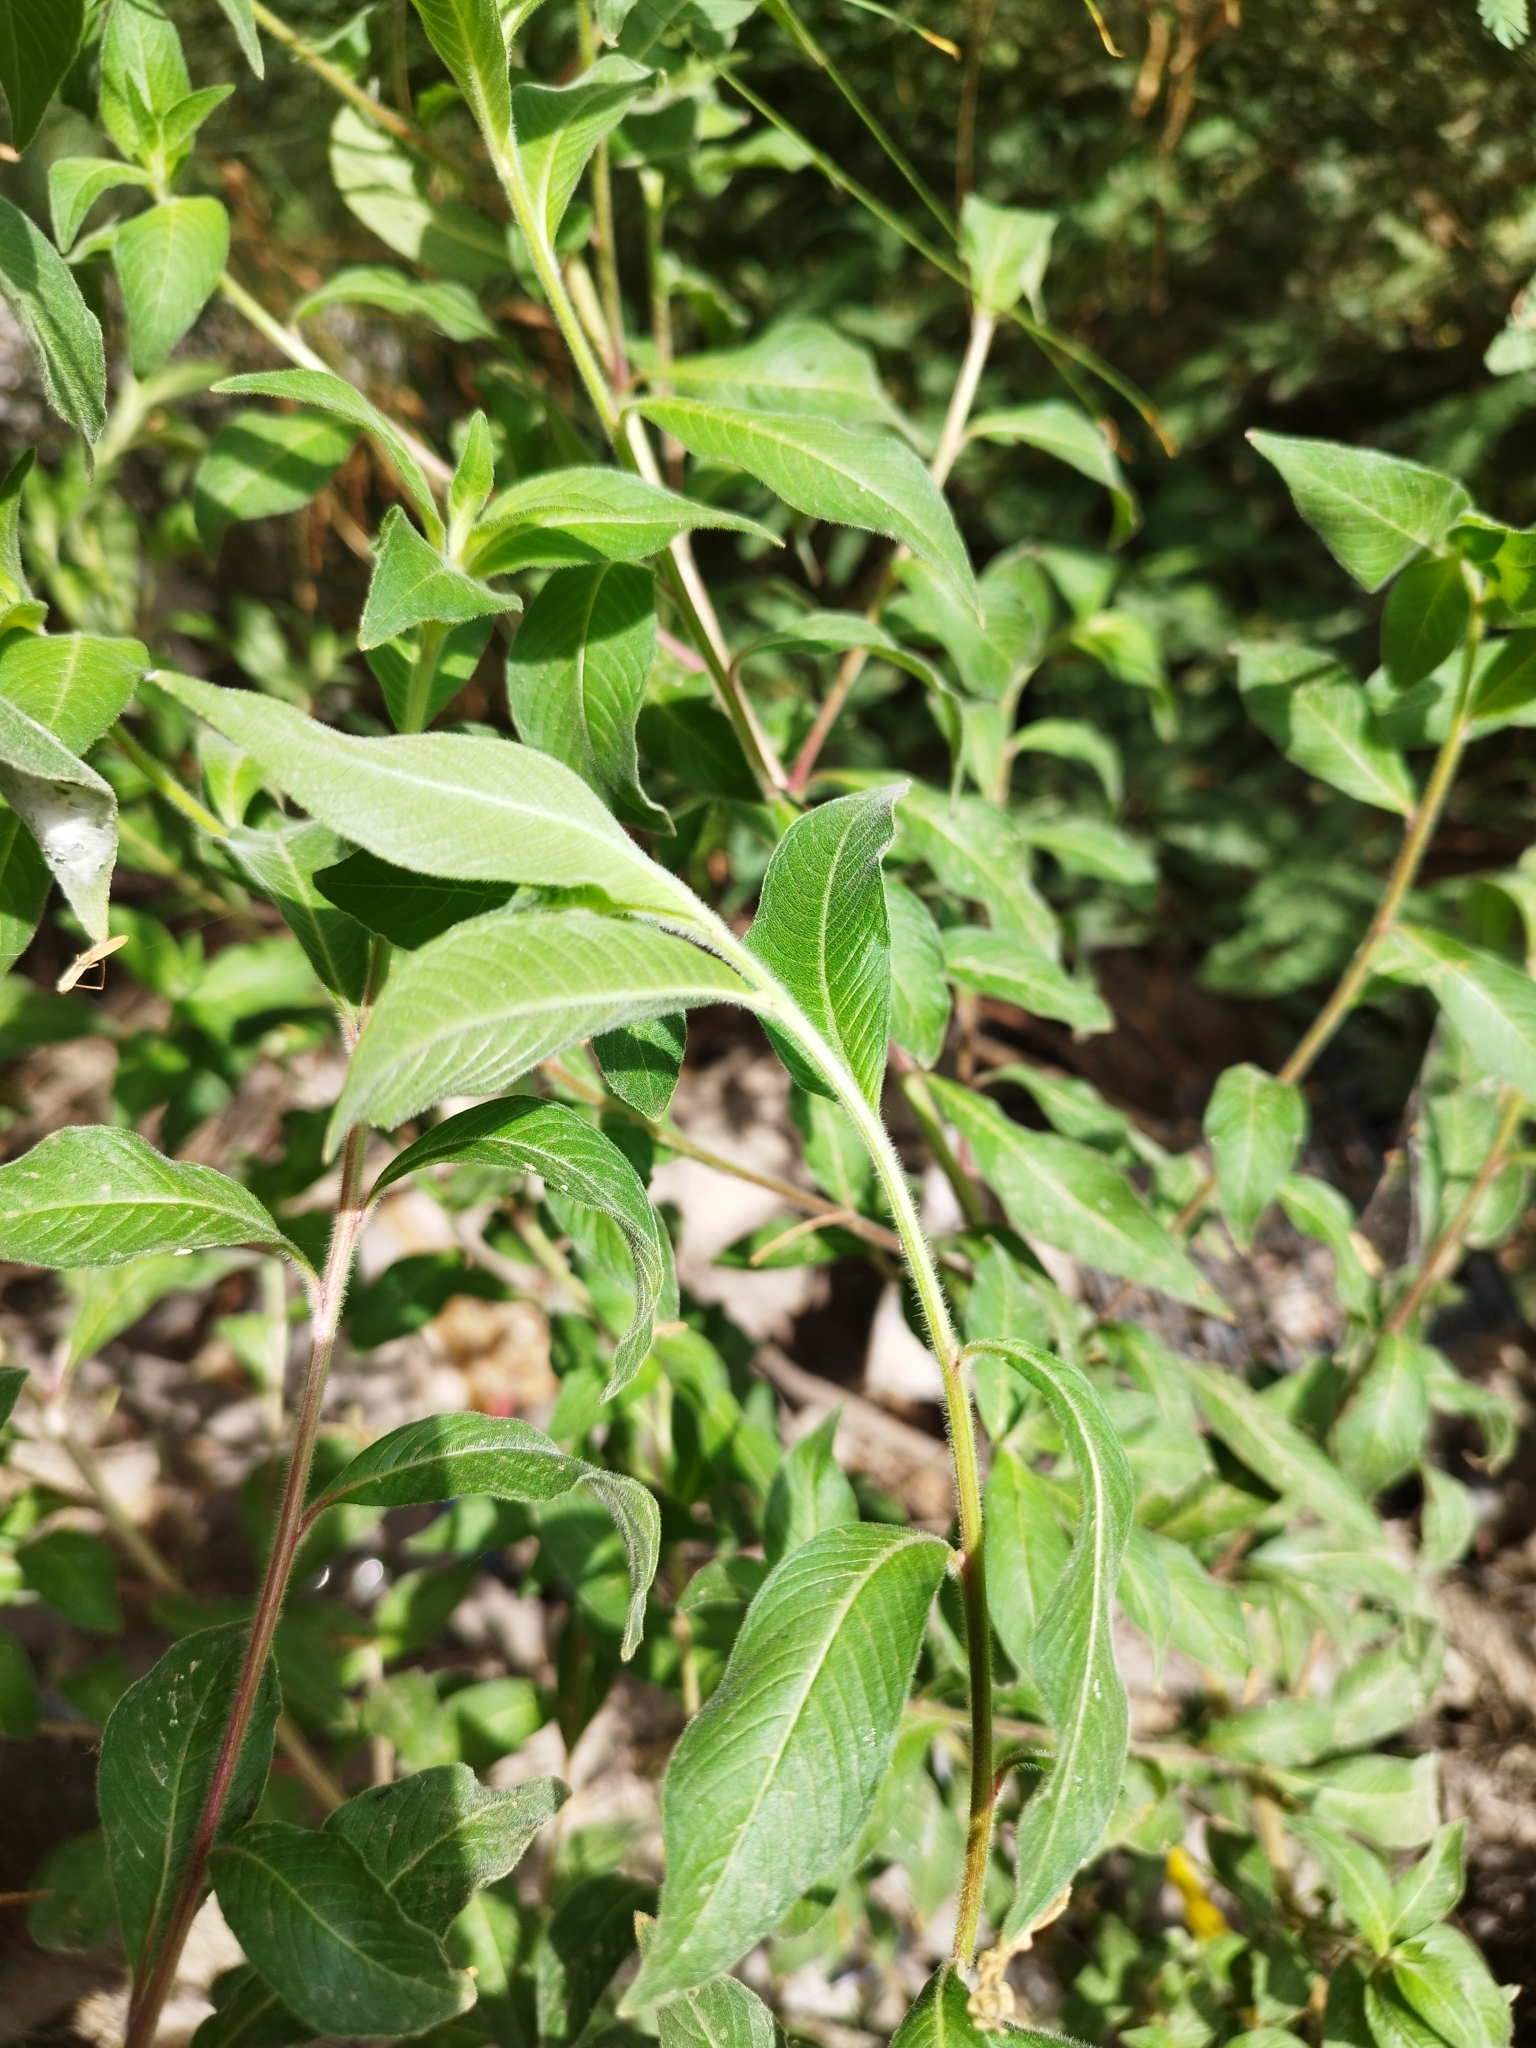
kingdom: Plantae
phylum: Tracheophyta
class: Magnoliopsida
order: Myrtales
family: Onagraceae
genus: Ludwigia
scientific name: Ludwigia octovalvis
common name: Water-primrose
